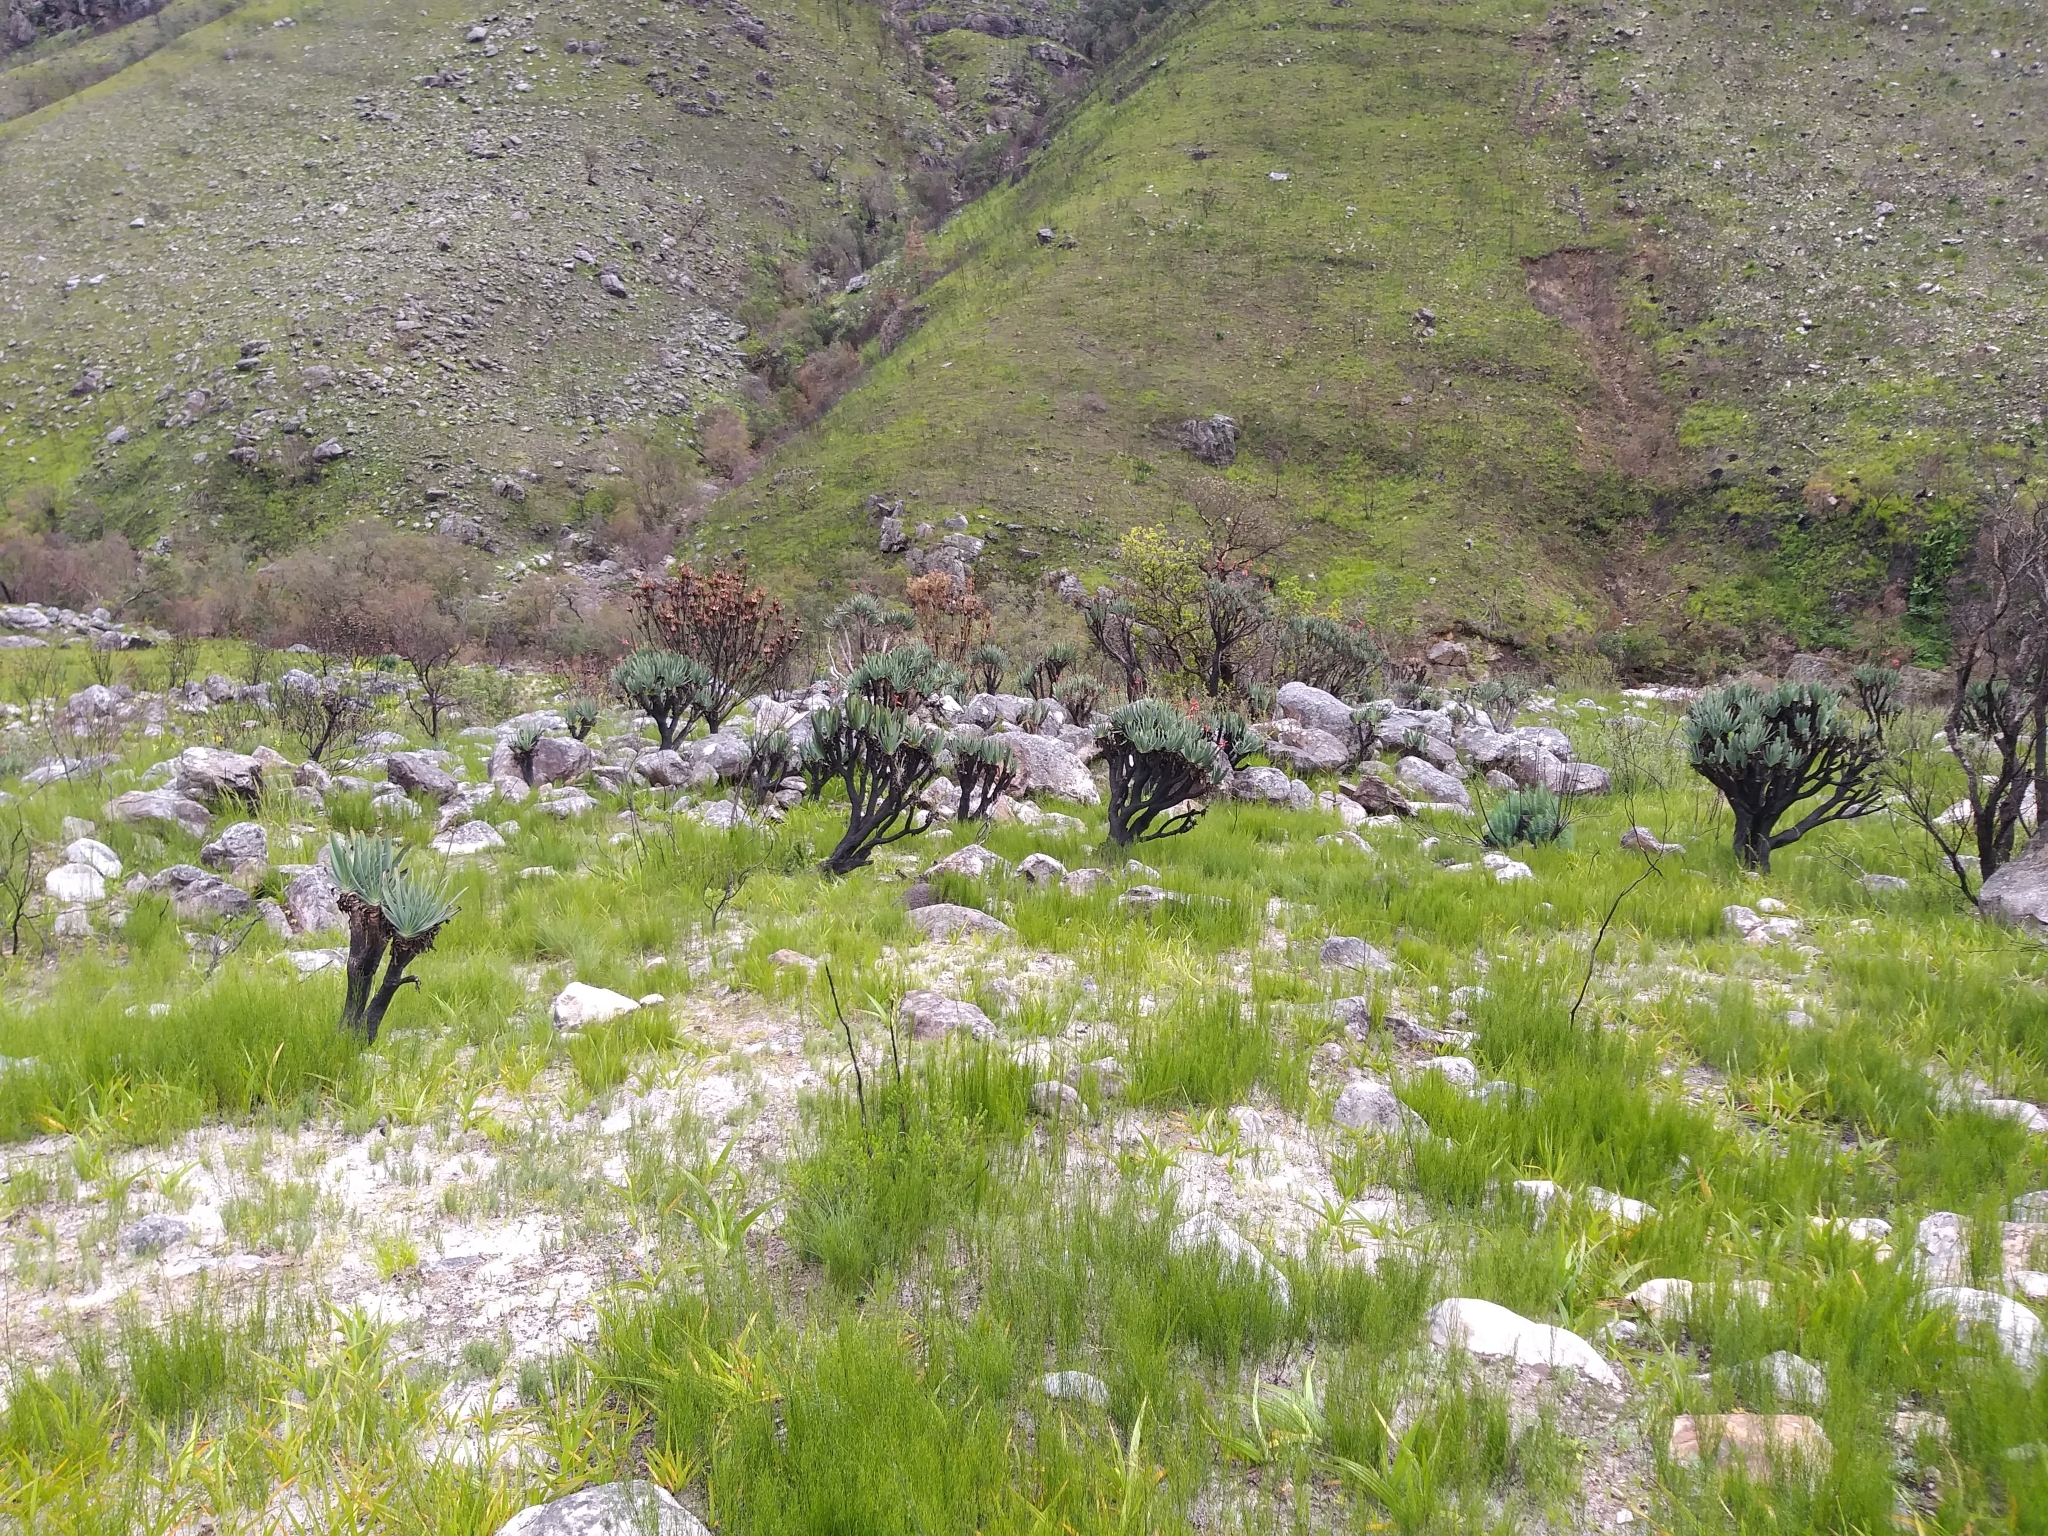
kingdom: Plantae
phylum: Tracheophyta
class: Liliopsida
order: Asparagales
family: Asphodelaceae
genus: Kumara
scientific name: Kumara plicatilis
